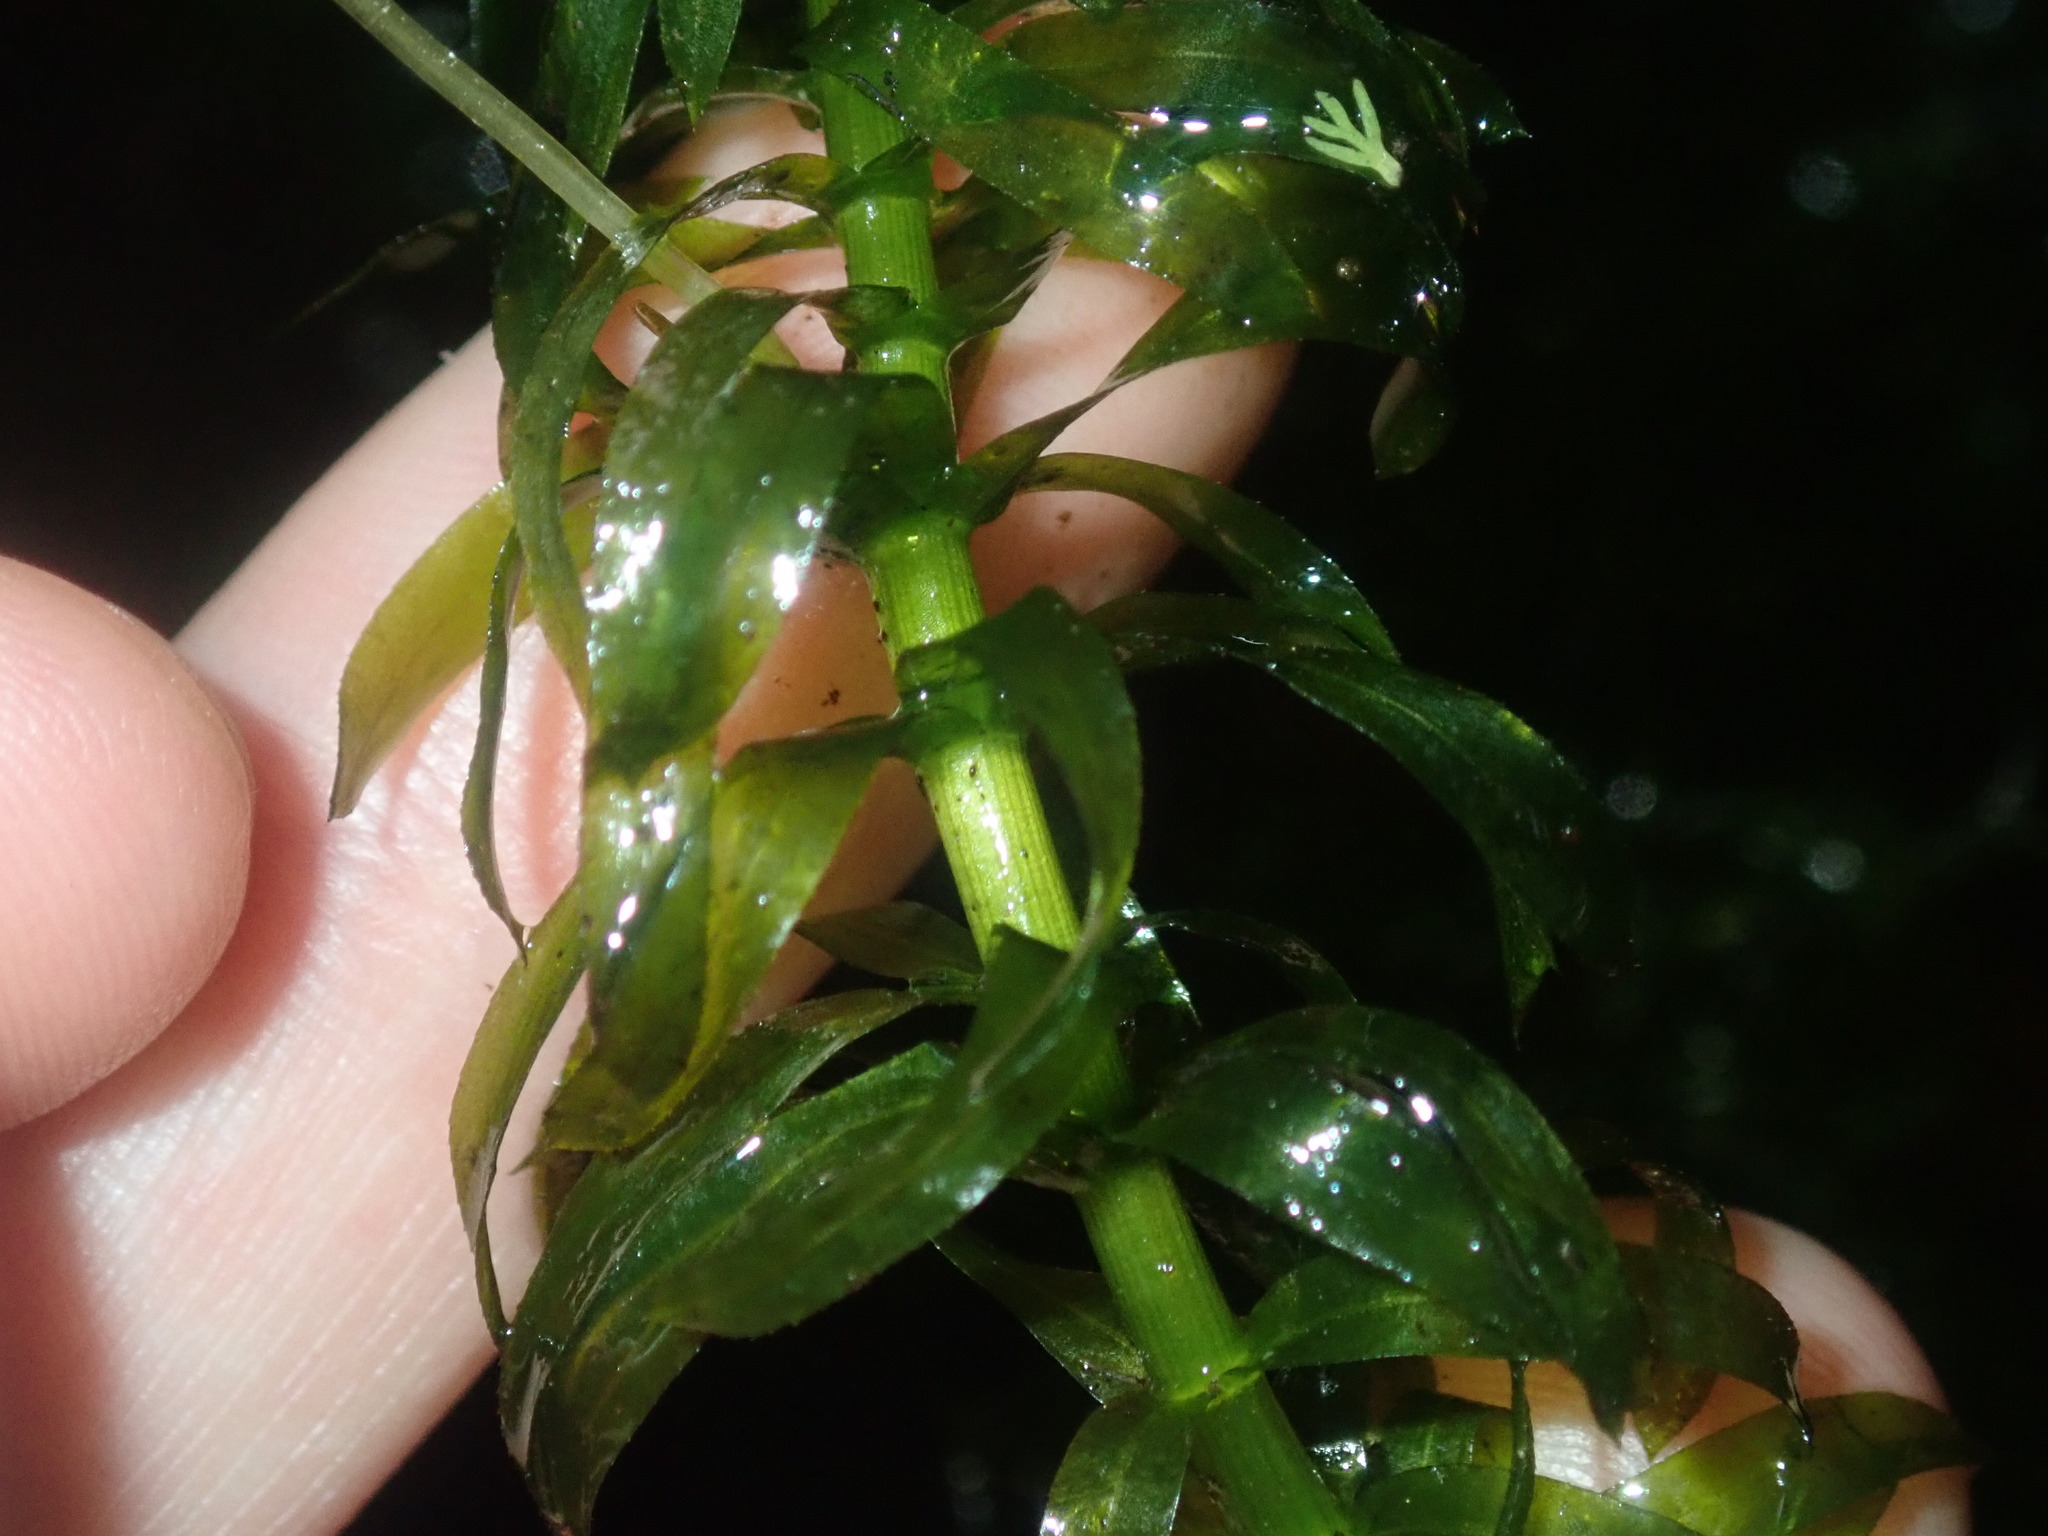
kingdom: Plantae
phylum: Tracheophyta
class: Liliopsida
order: Alismatales
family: Hydrocharitaceae
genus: Elodea
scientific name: Elodea densa
